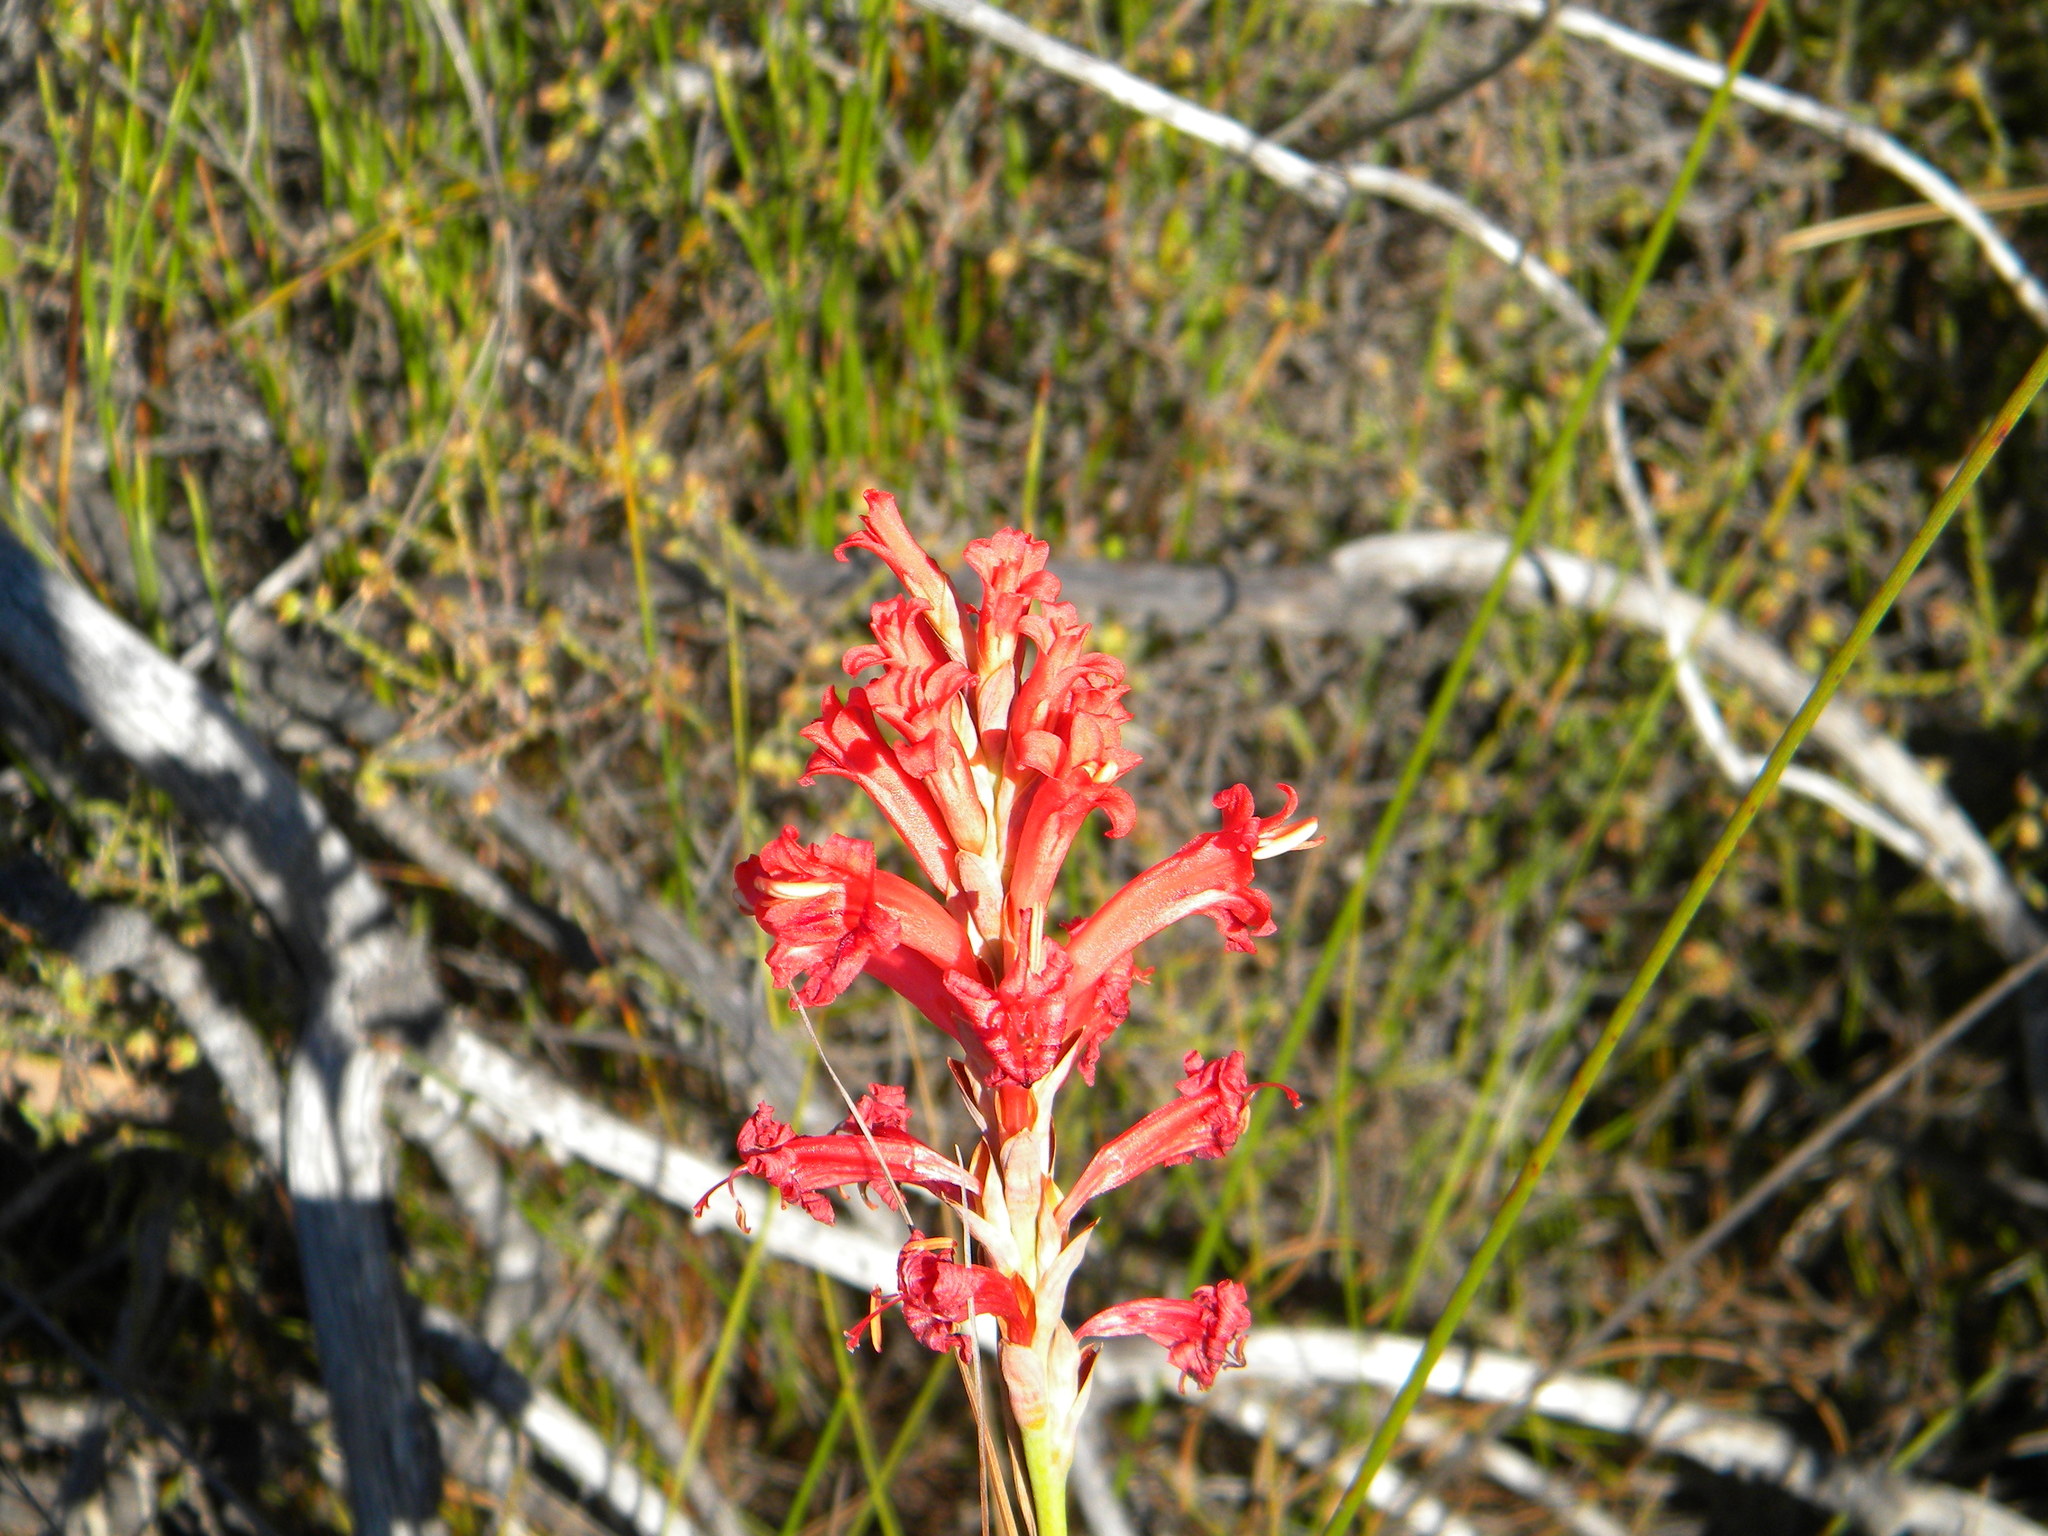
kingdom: Plantae
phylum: Tracheophyta
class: Liliopsida
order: Asparagales
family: Iridaceae
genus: Tritoniopsis
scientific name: Tritoniopsis triticea
